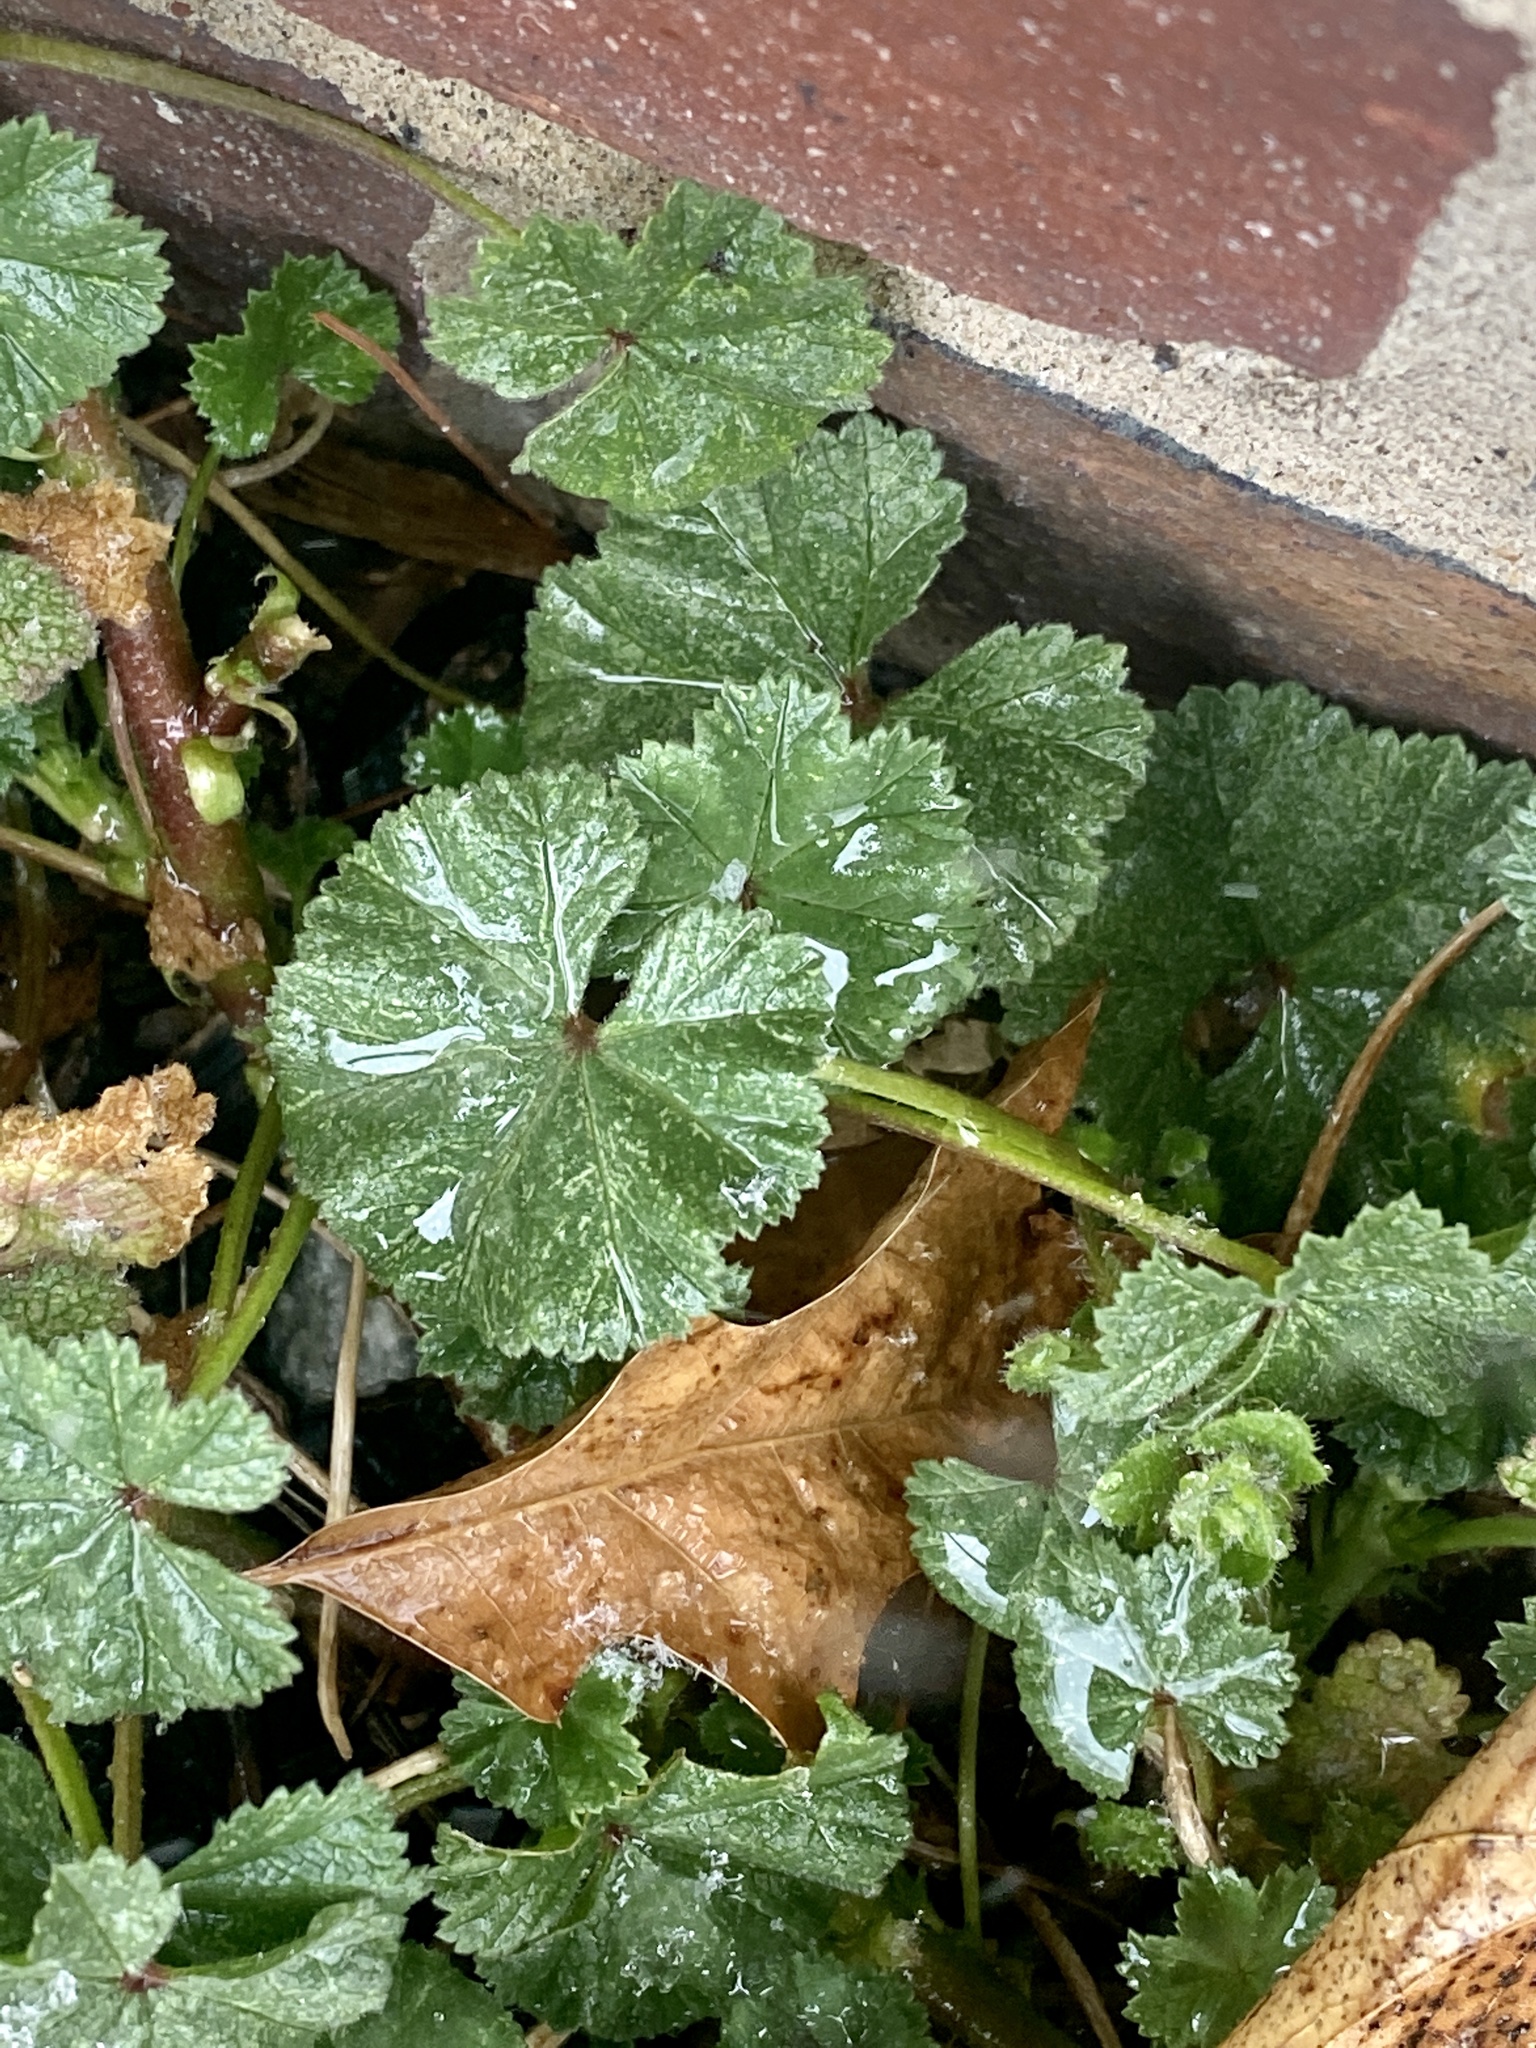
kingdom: Plantae
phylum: Tracheophyta
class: Magnoliopsida
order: Malvales
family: Malvaceae
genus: Malva
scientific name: Malva neglecta
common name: Common mallow
